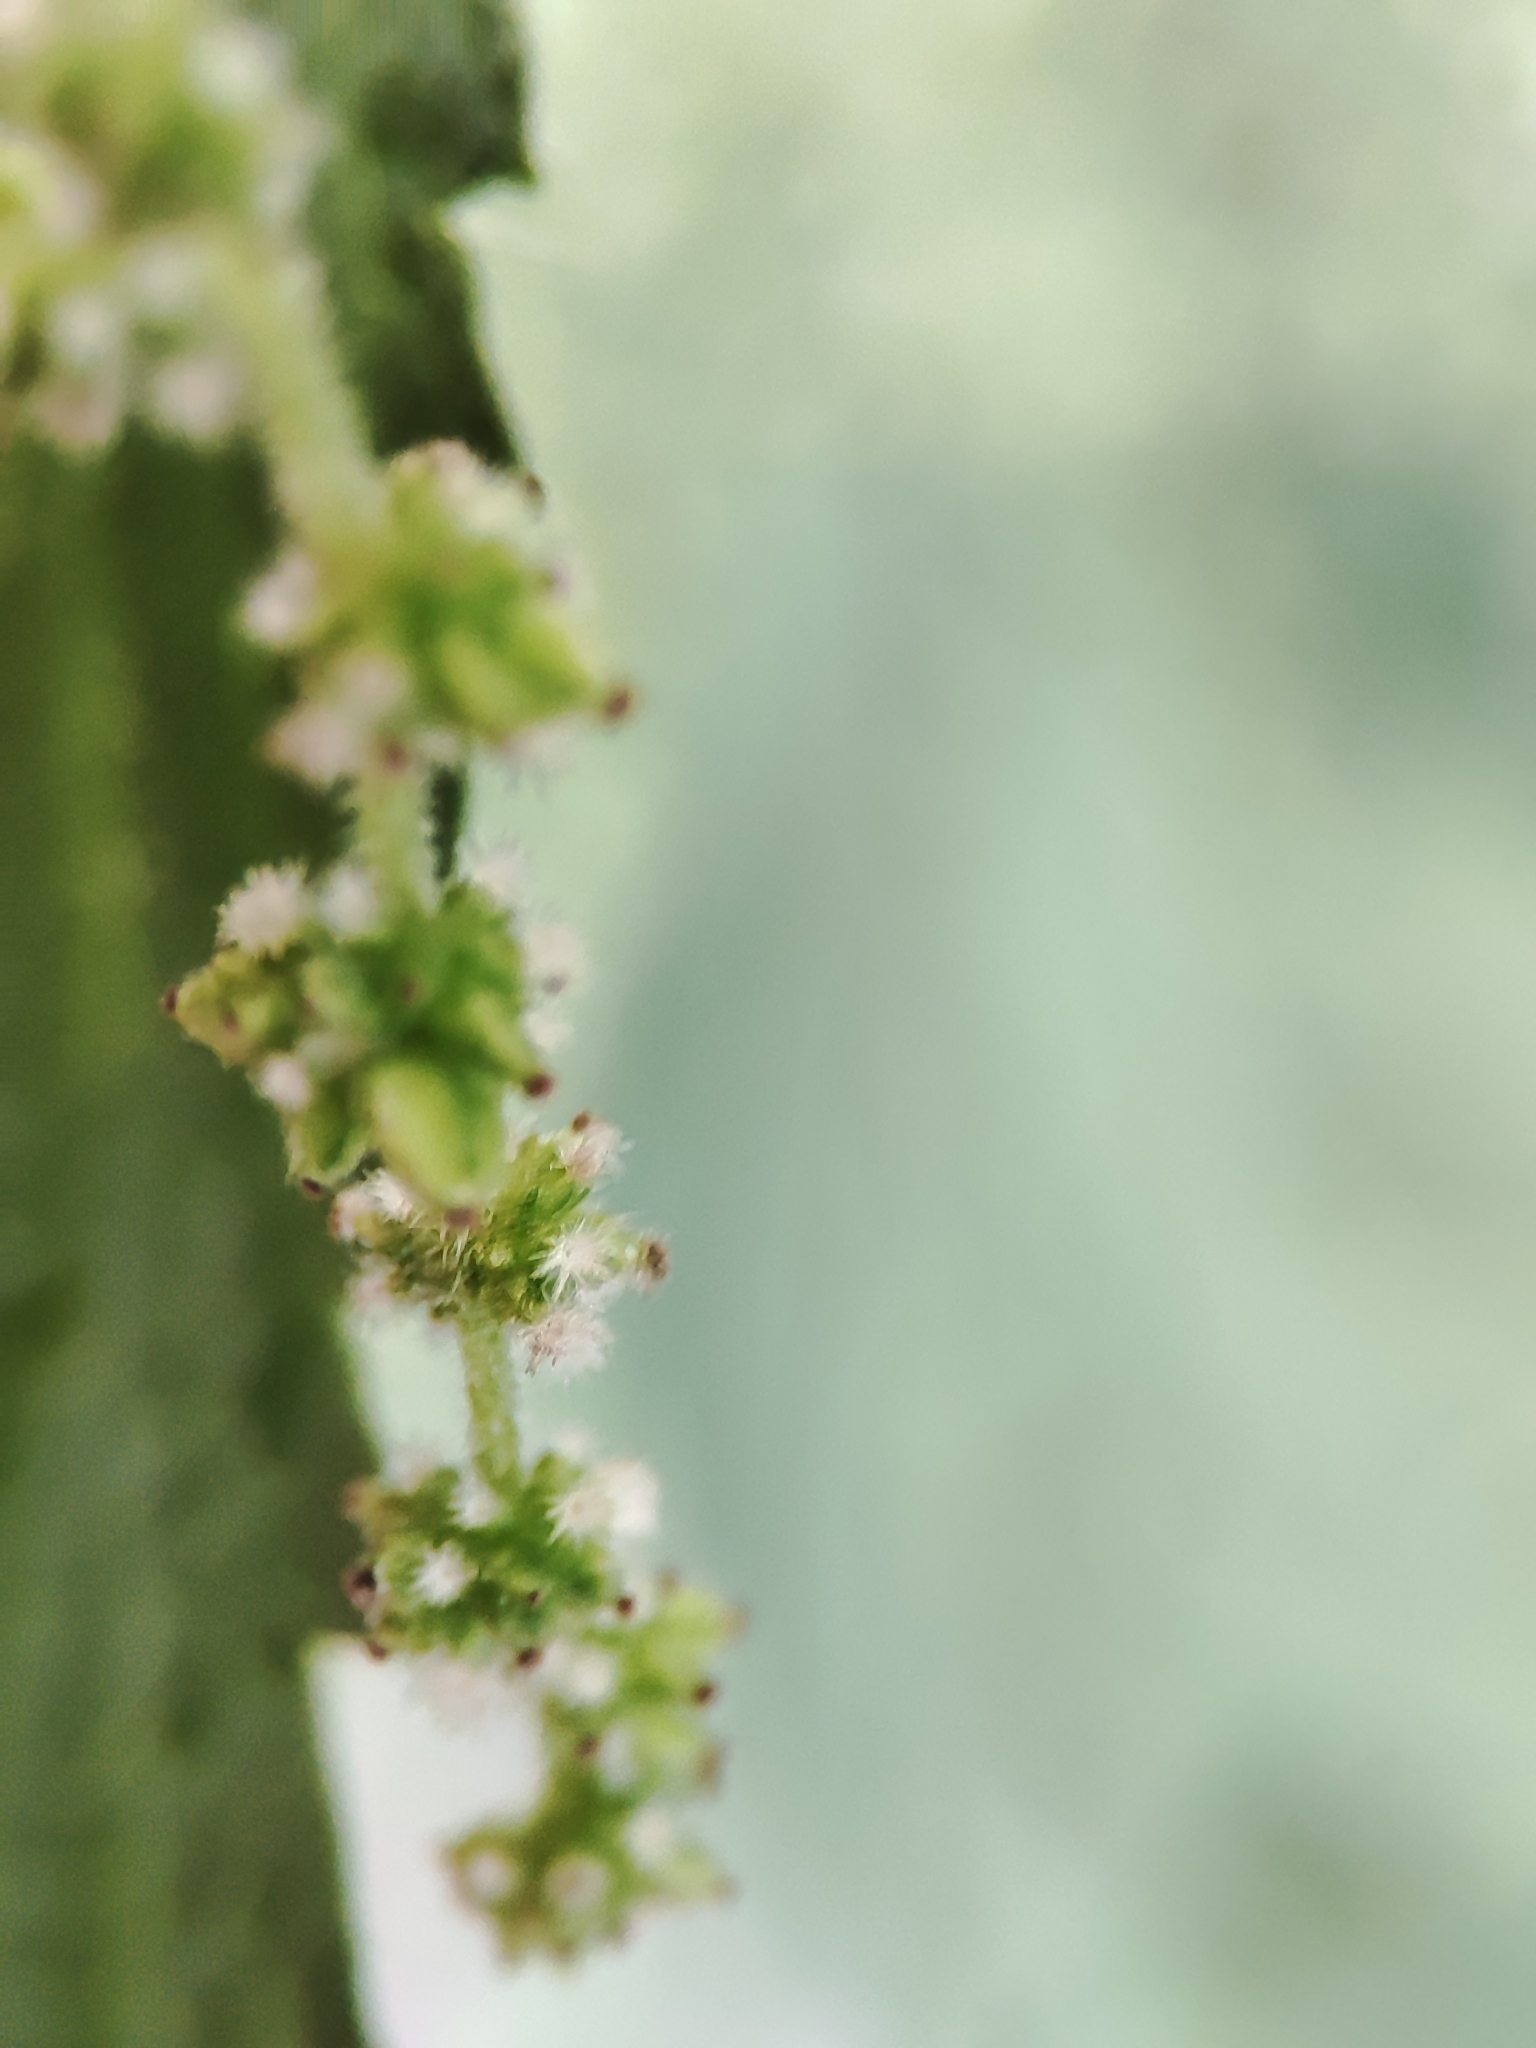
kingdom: Plantae
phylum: Tracheophyta
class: Magnoliopsida
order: Rosales
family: Urticaceae
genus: Urtica
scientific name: Urtica dioica
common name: Common nettle
